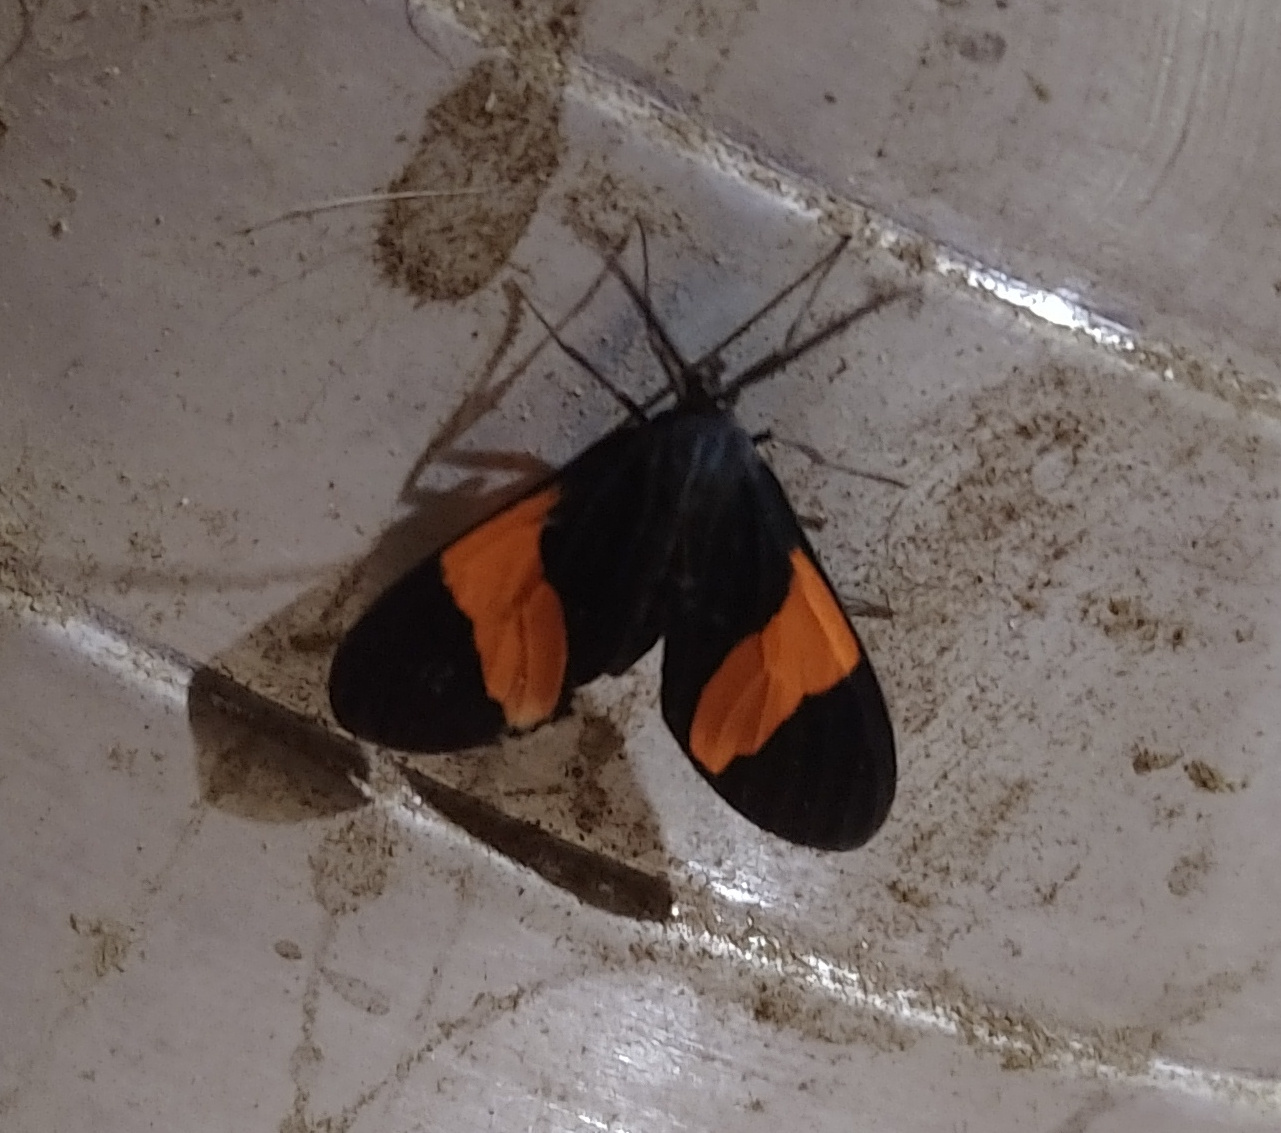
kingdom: Animalia
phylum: Arthropoda
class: Insecta
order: Lepidoptera
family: Erebidae
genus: Callopepla
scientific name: Callopepla emarginata
